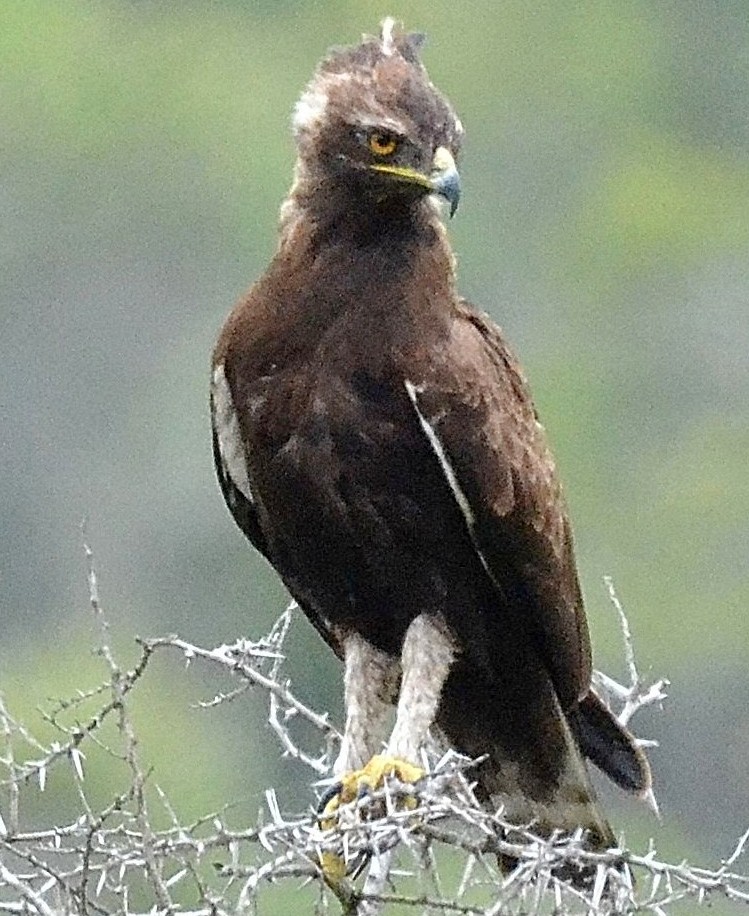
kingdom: Animalia
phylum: Chordata
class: Aves
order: Accipitriformes
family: Accipitridae
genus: Lophaetus
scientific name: Lophaetus occipitalis
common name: Long-crested eagle
